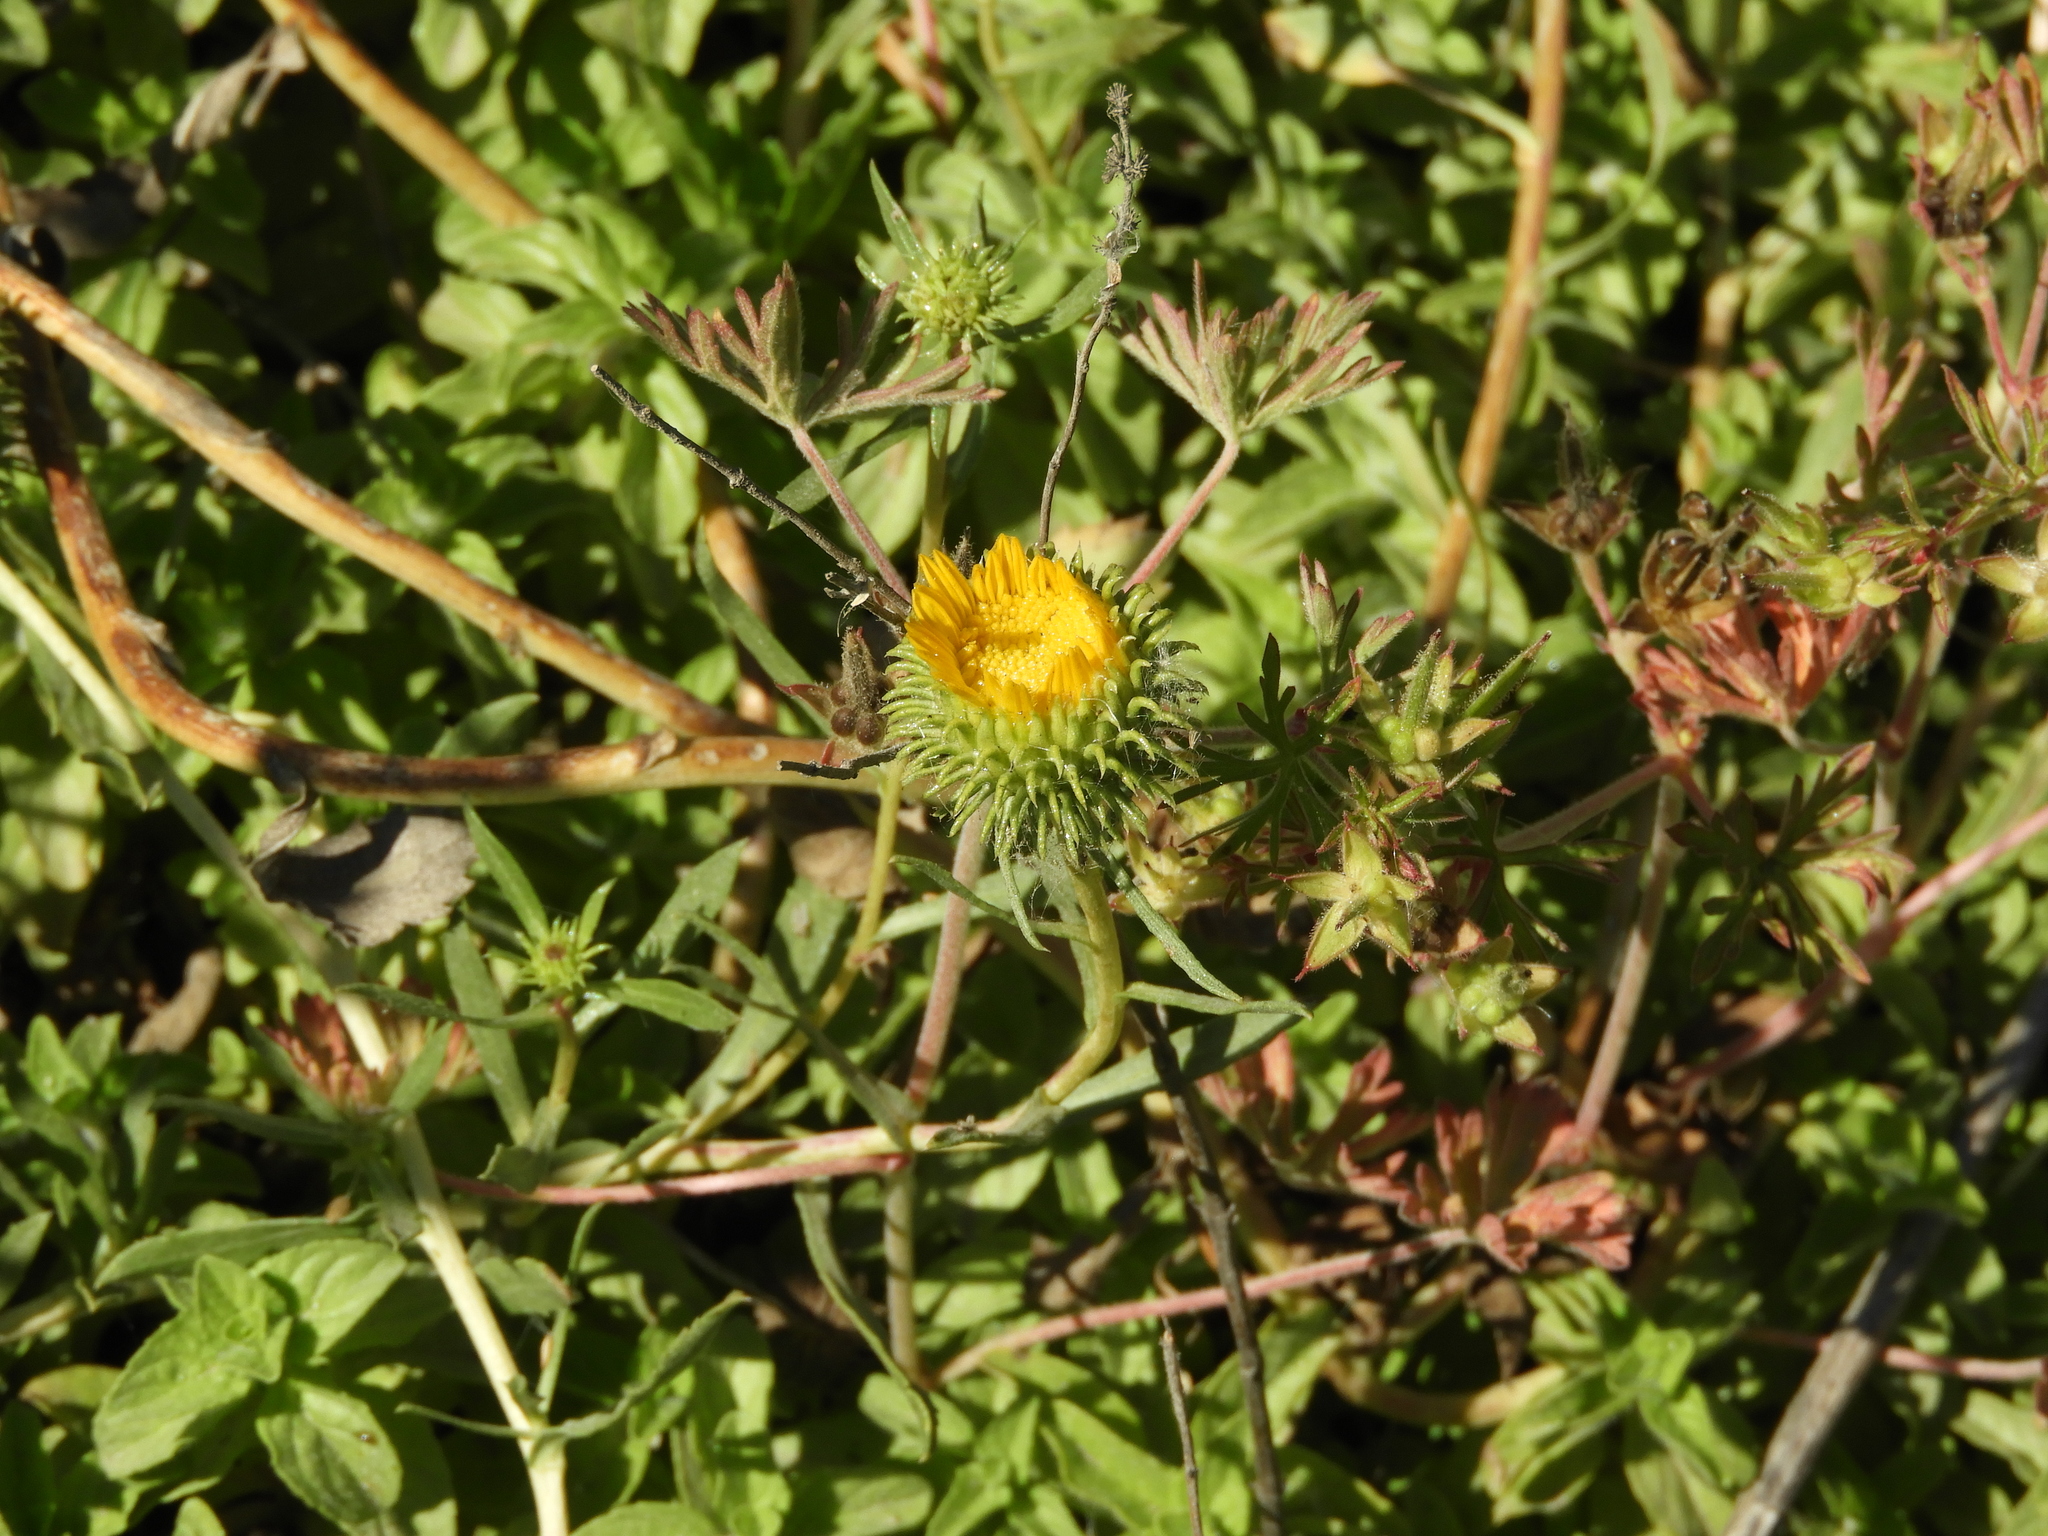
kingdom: Plantae
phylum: Tracheophyta
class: Magnoliopsida
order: Asterales
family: Asteraceae
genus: Grindelia
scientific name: Grindelia hirsutula
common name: Hairy gumweed
